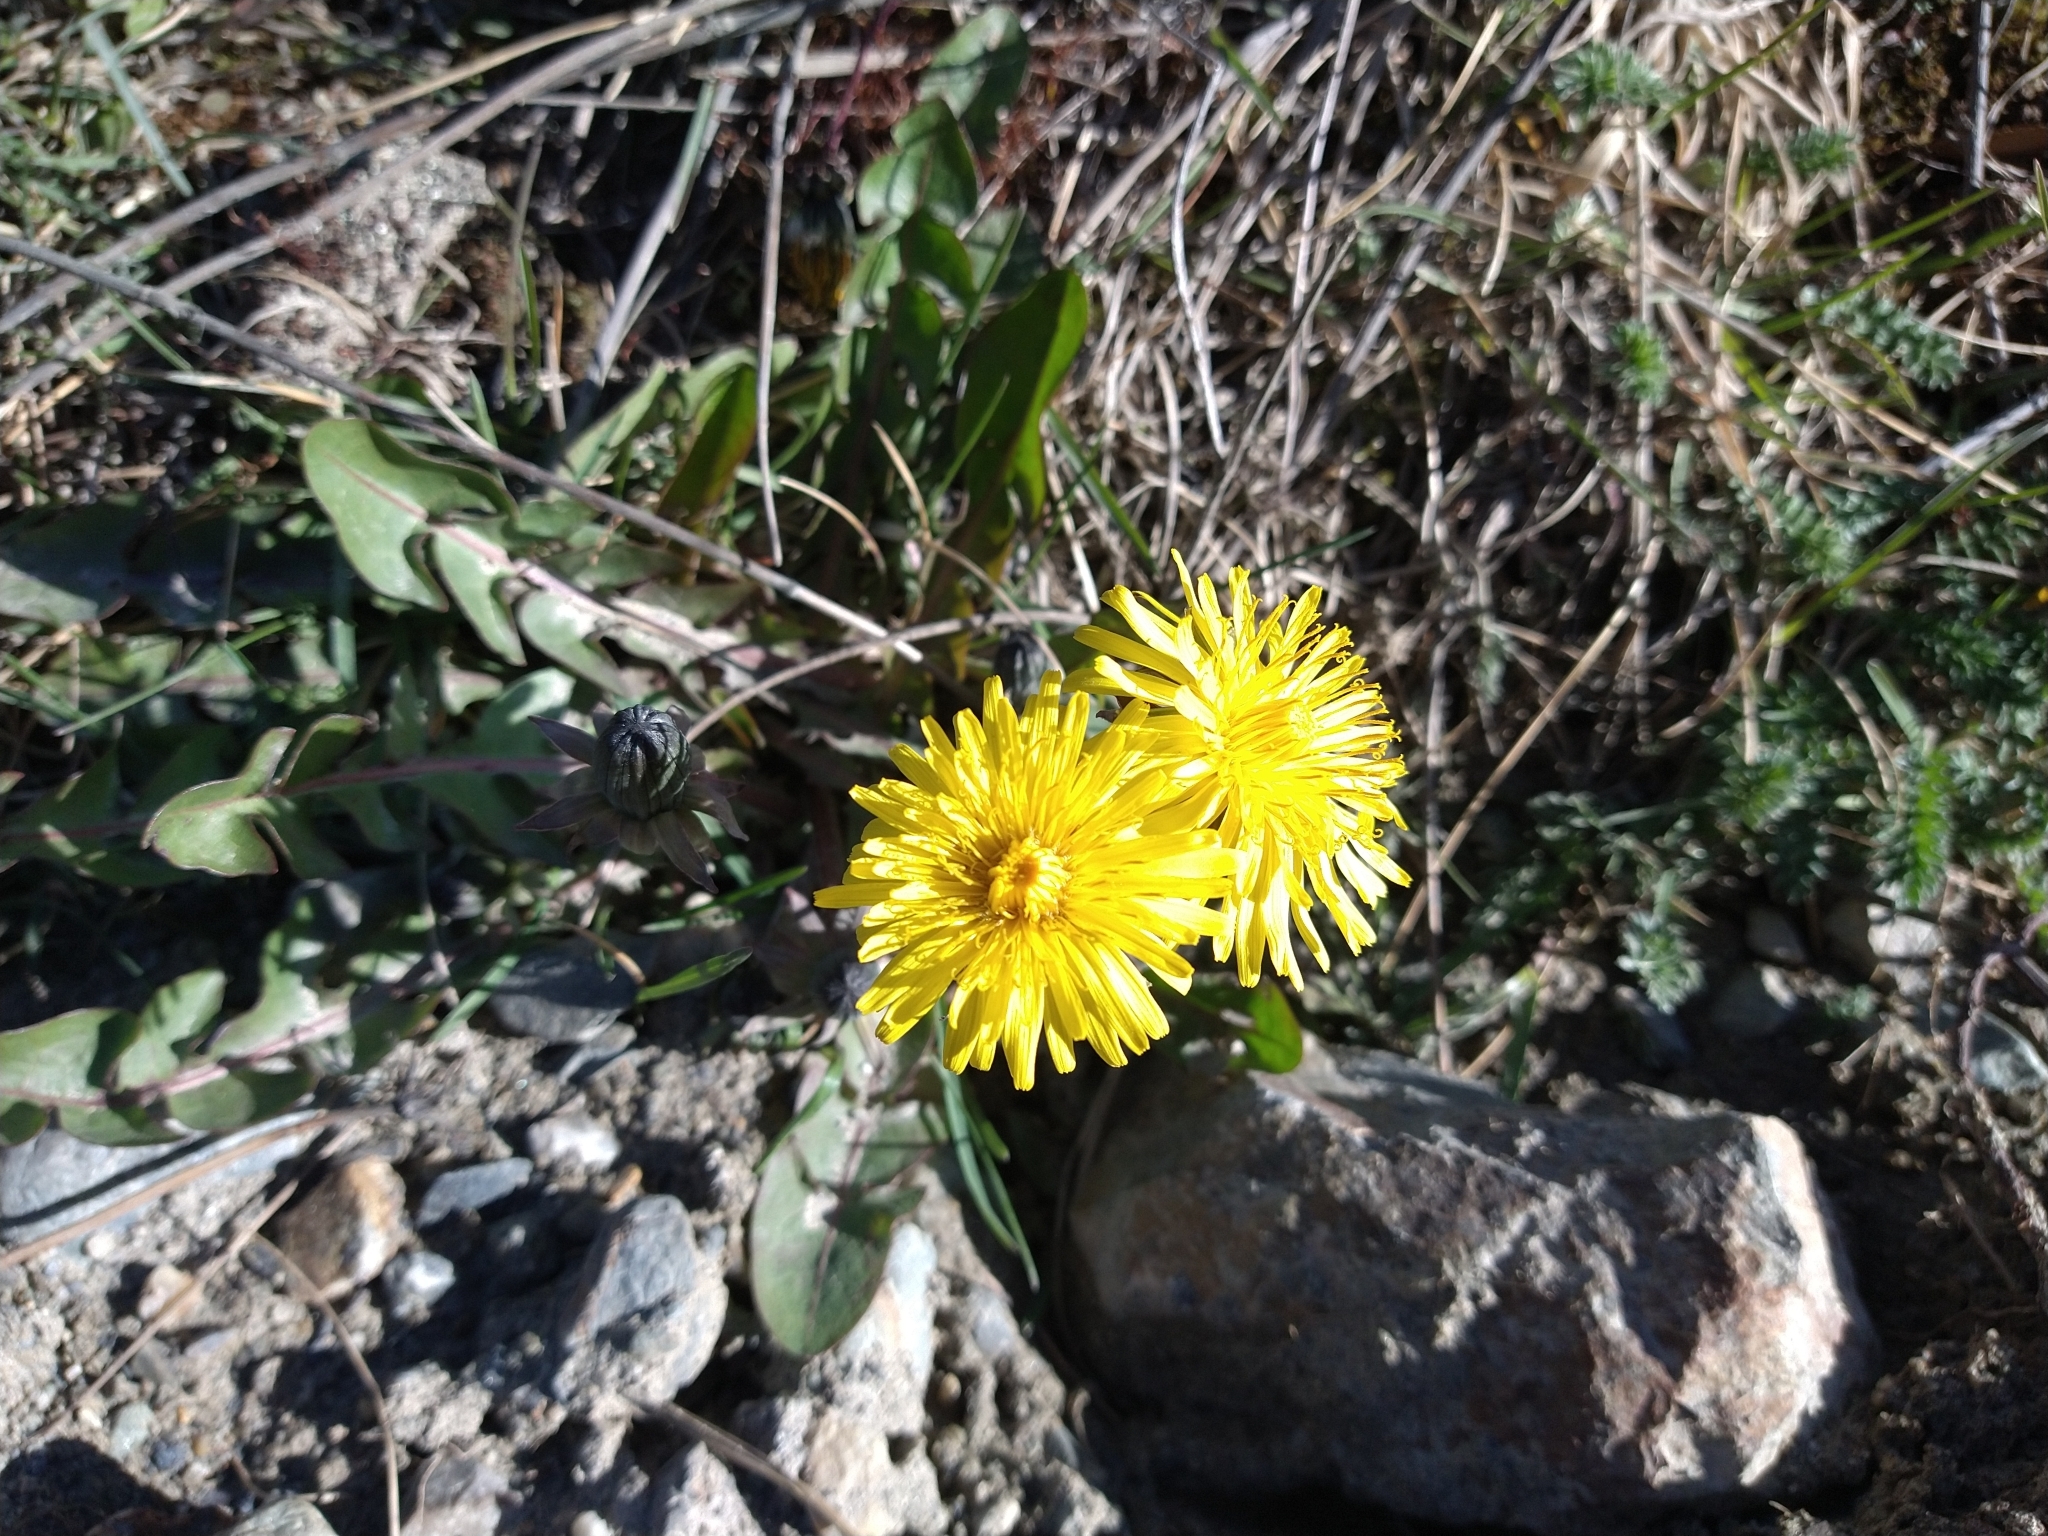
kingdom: Plantae
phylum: Tracheophyta
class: Magnoliopsida
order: Asterales
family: Asteraceae
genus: Taraxacum
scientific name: Taraxacum officinale
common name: Common dandelion
